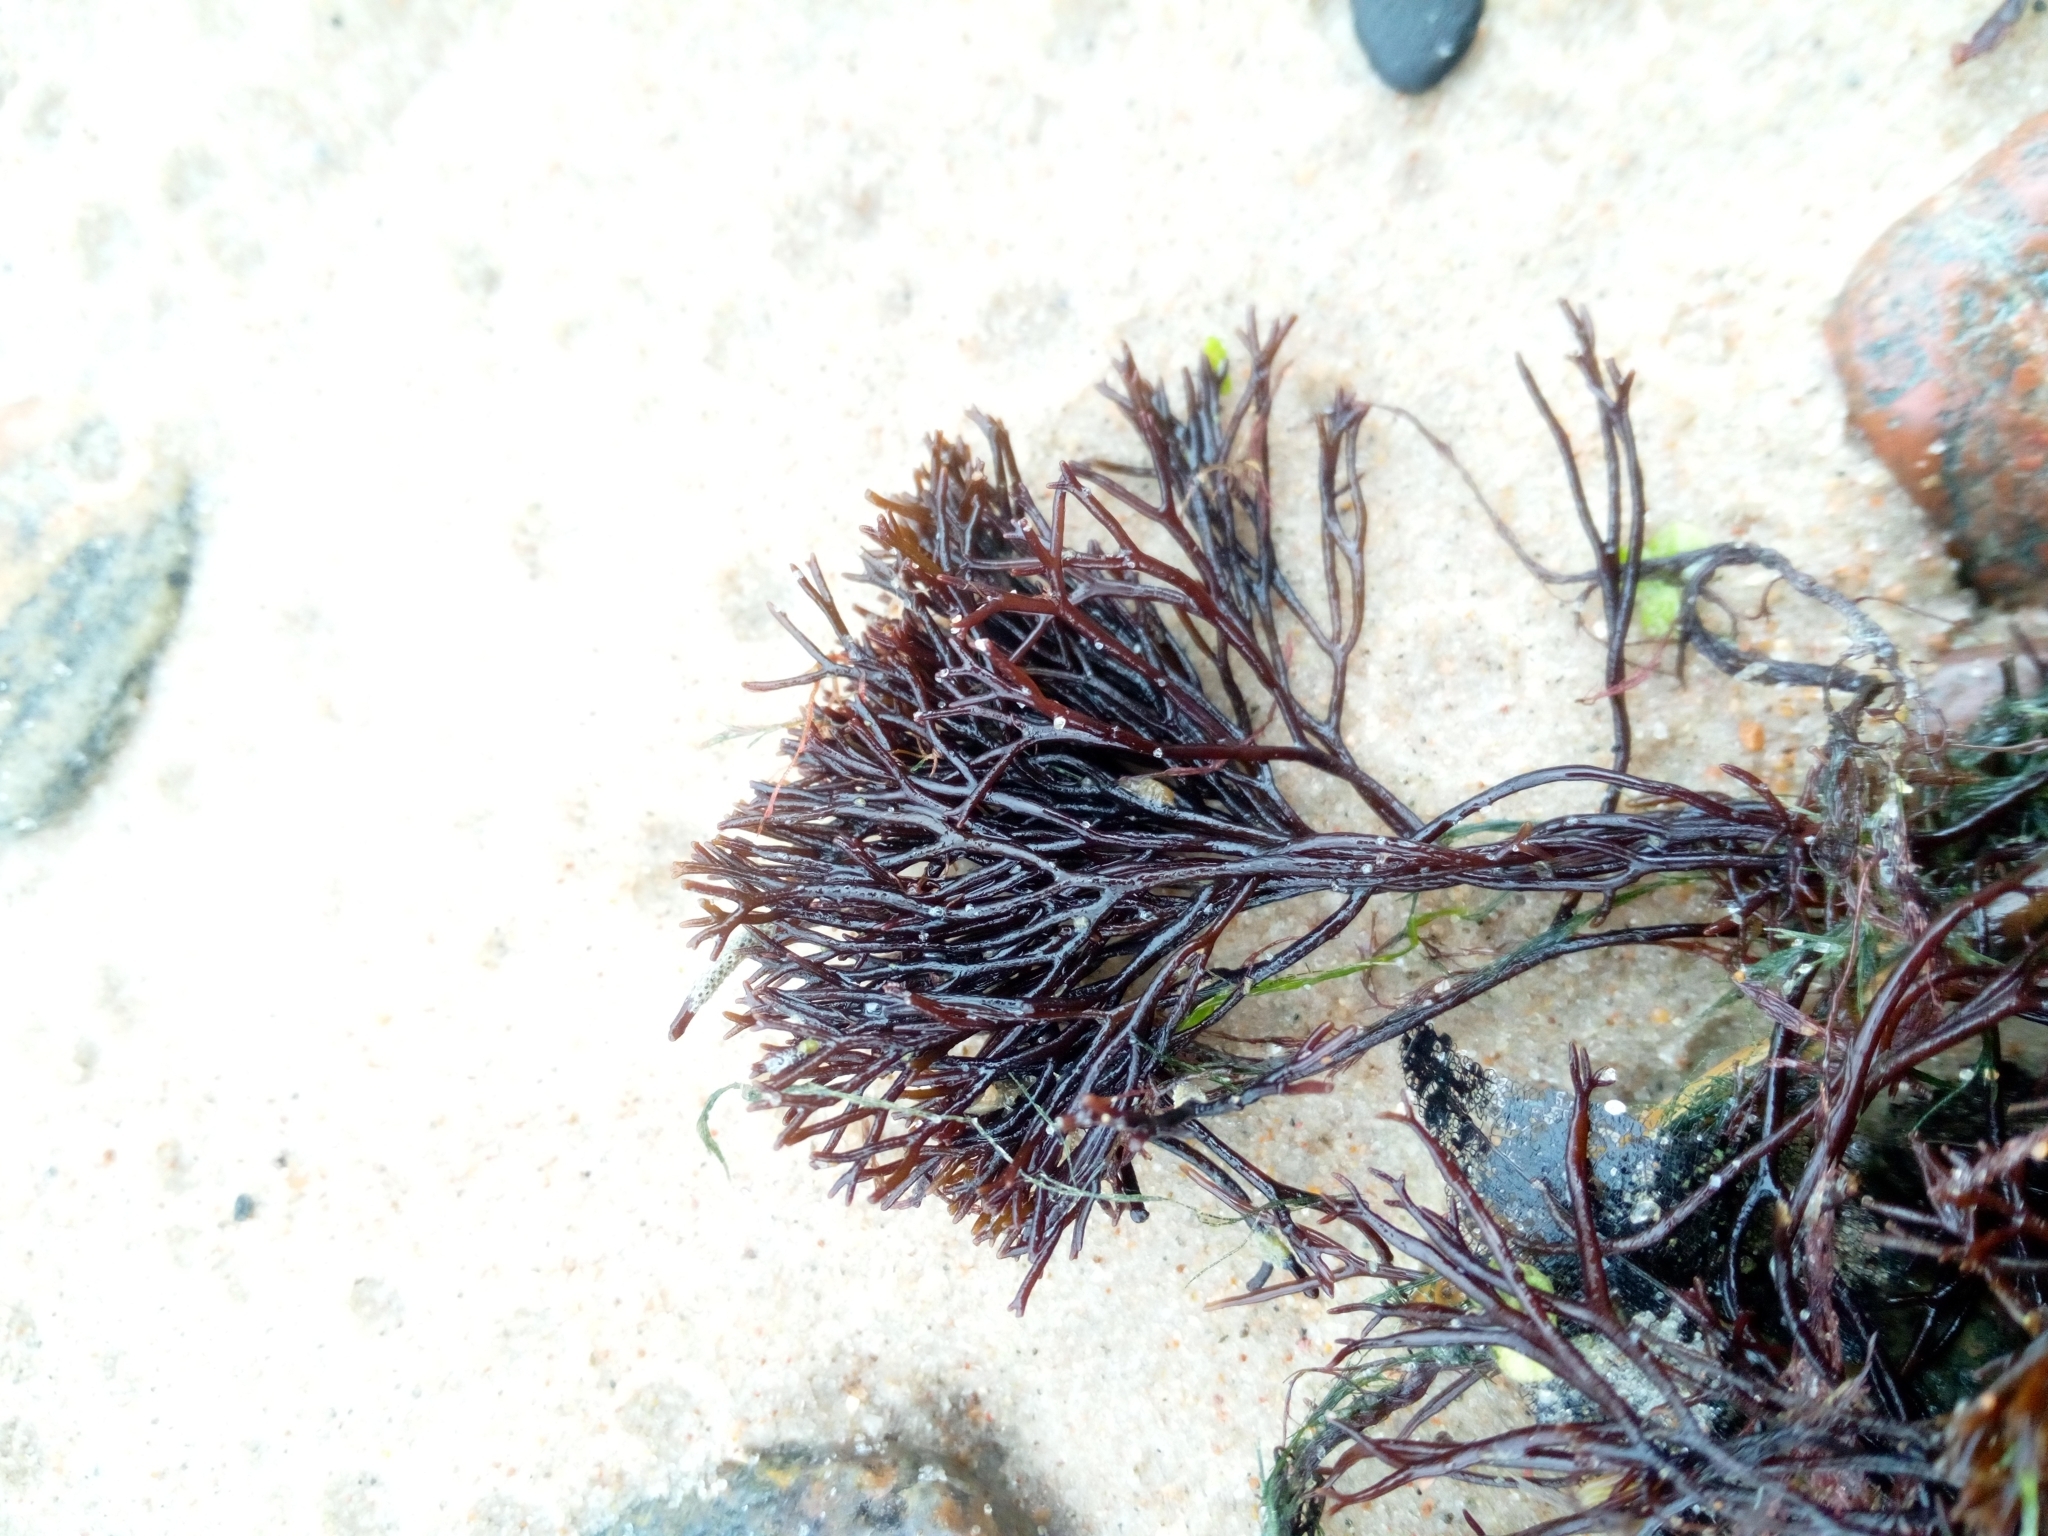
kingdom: Plantae
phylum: Rhodophyta
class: Florideophyceae
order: Gigartinales
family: Furcellariaceae
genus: Furcellaria
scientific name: Furcellaria lumbricalis
